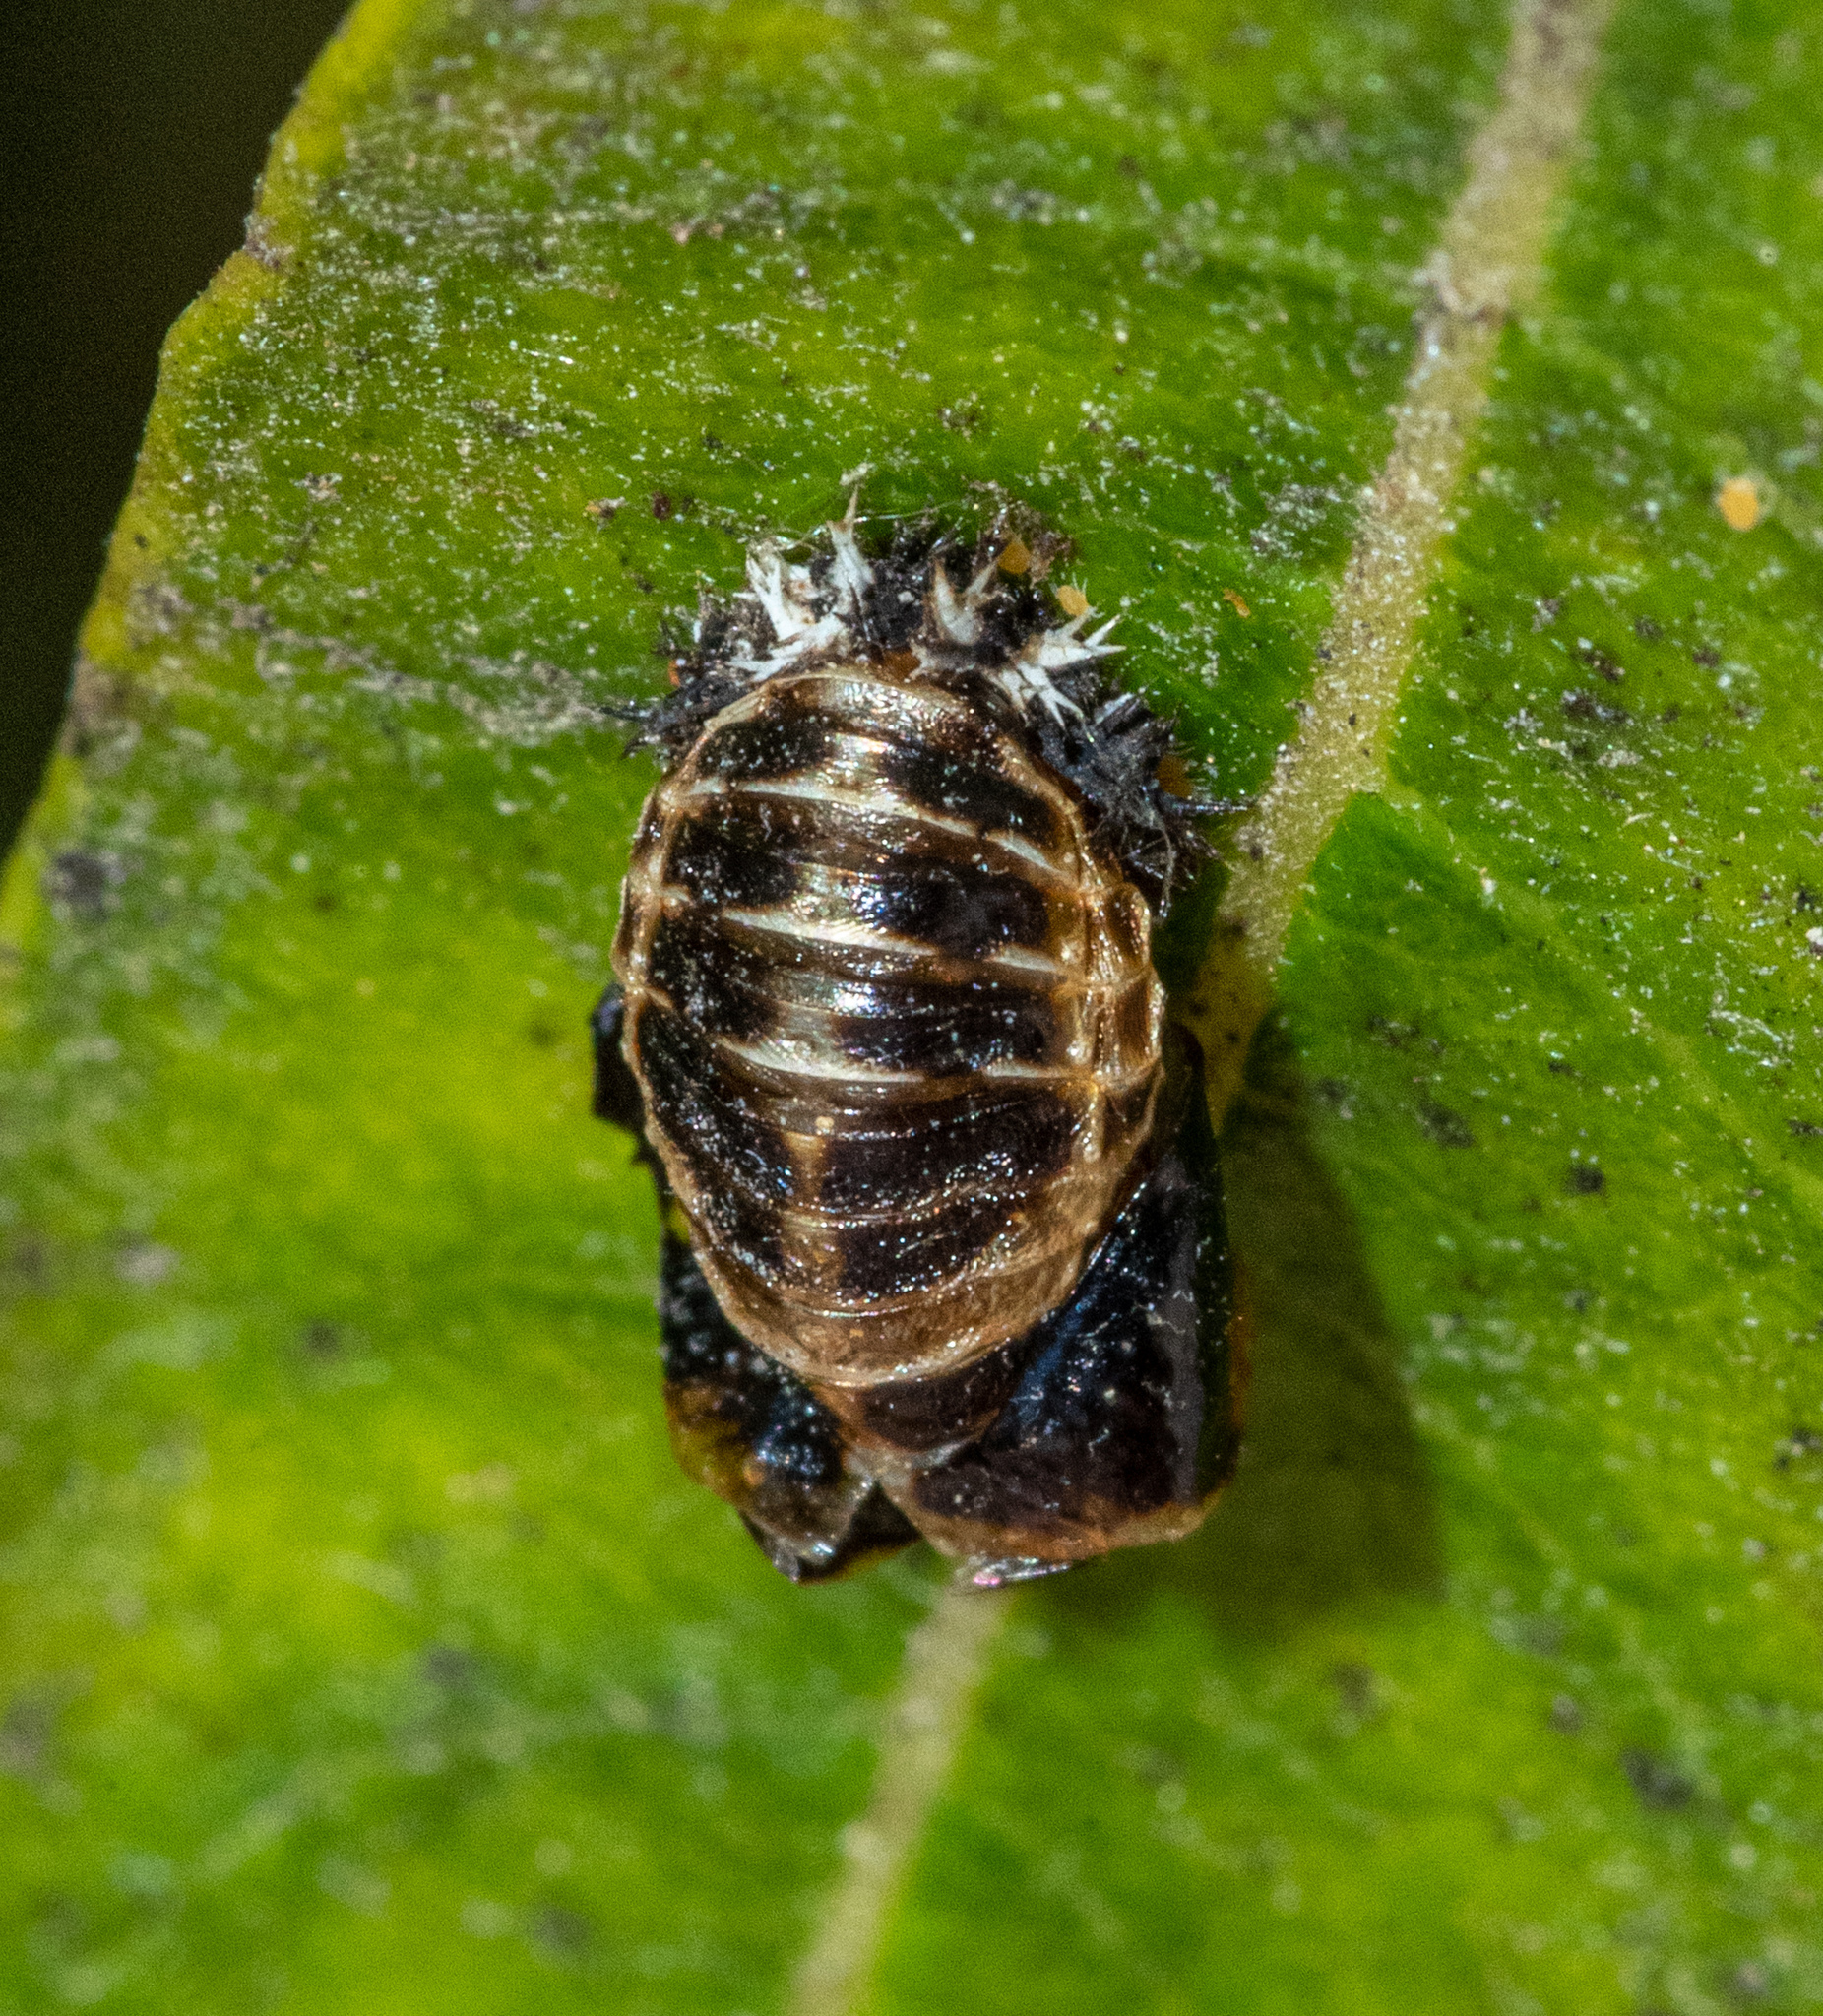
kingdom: Animalia
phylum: Arthropoda
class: Insecta
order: Coleoptera
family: Coccinellidae
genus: Harmonia
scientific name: Harmonia axyridis
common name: Harlequin ladybird
